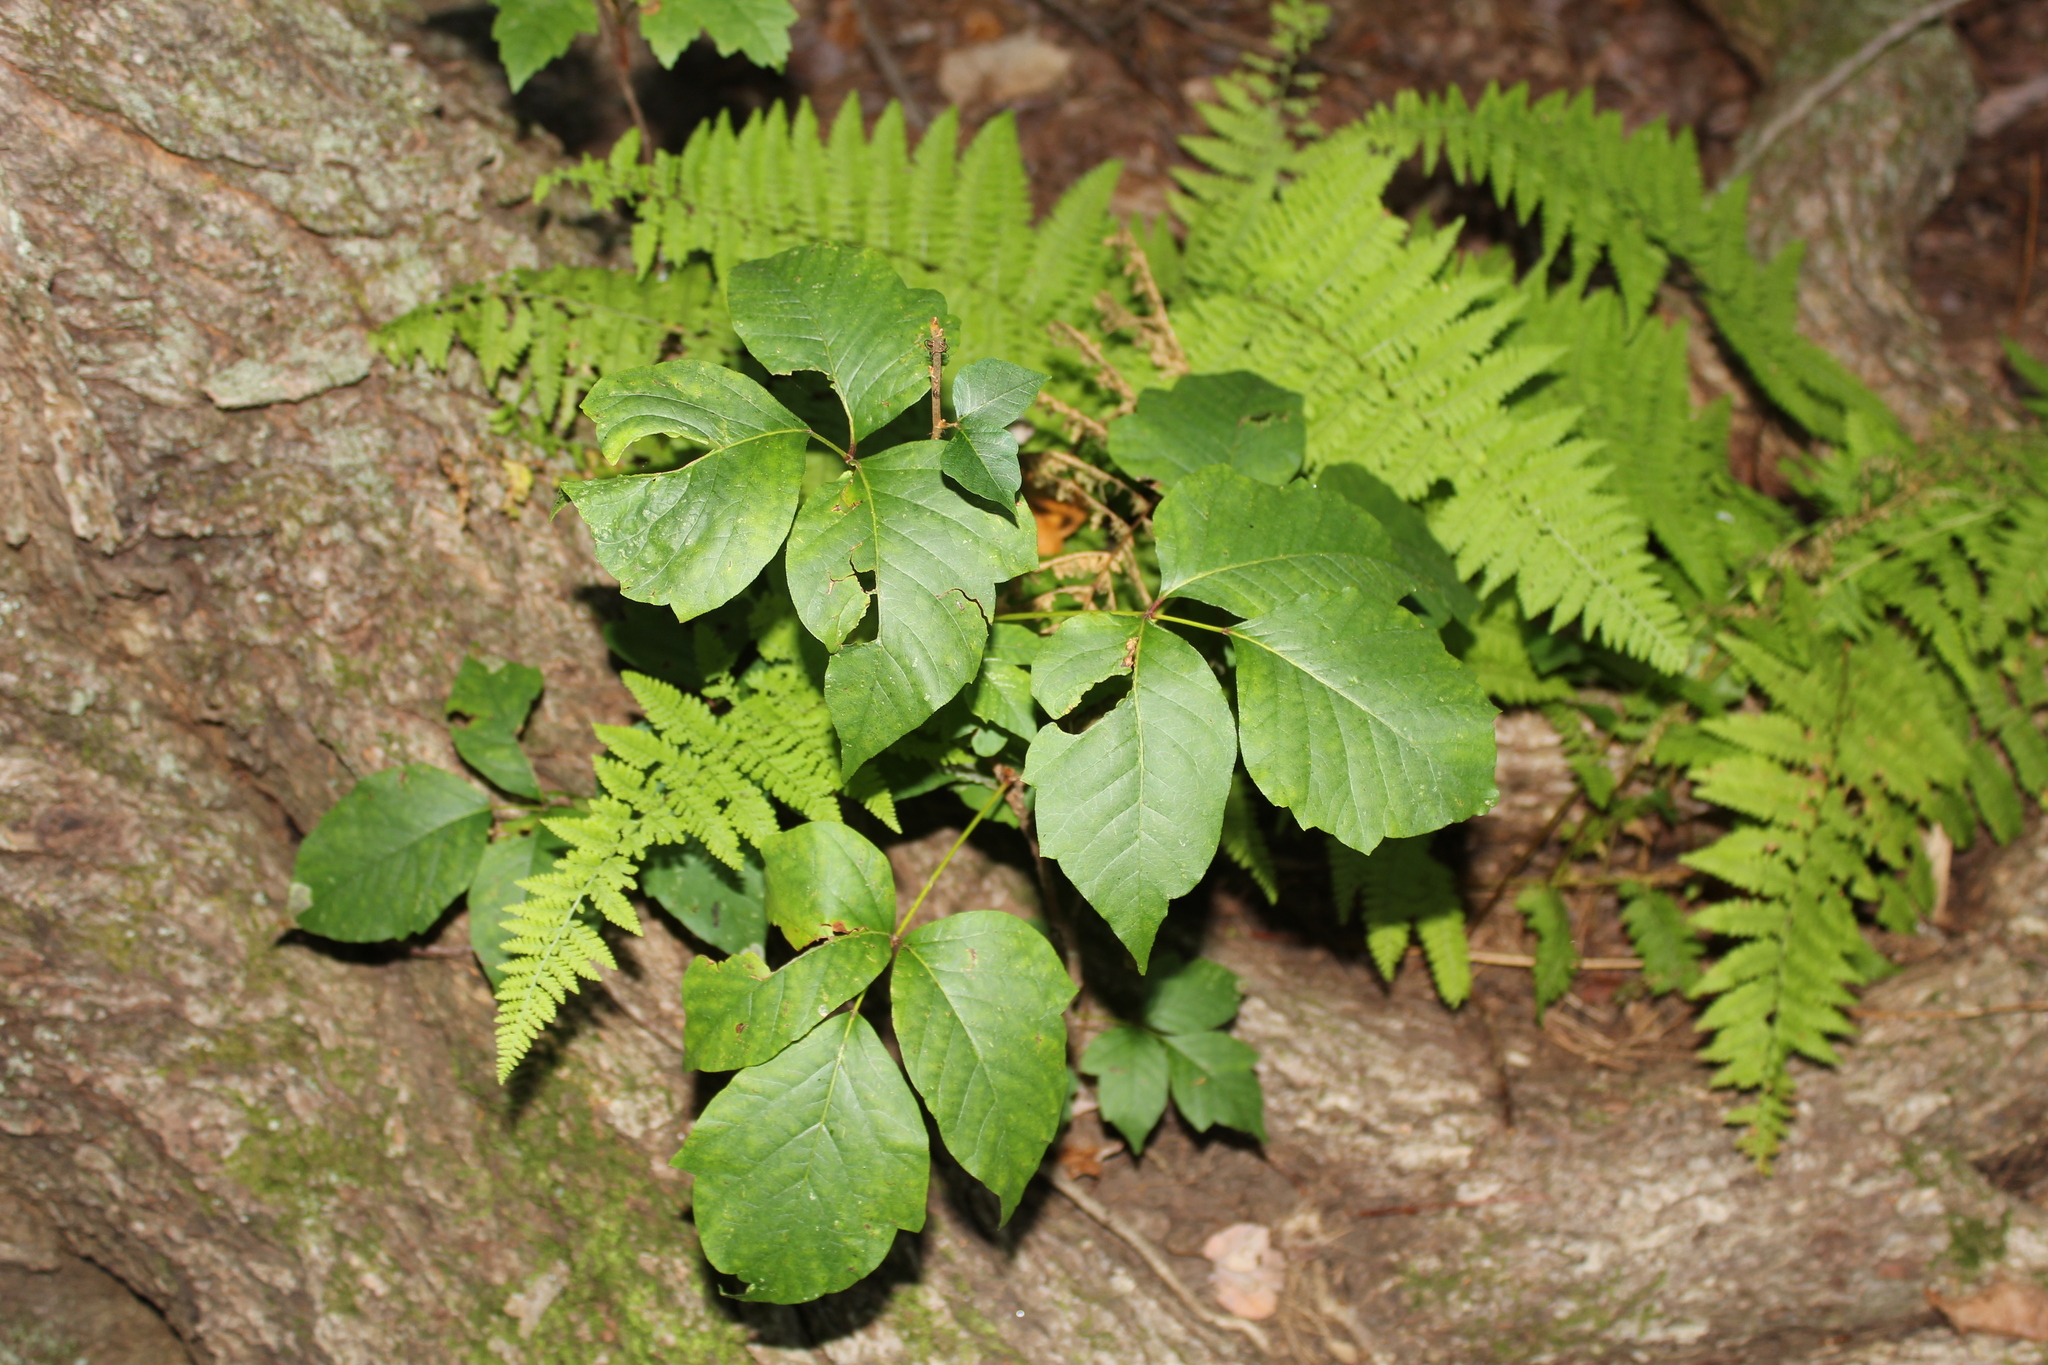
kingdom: Plantae
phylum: Tracheophyta
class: Magnoliopsida
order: Sapindales
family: Anacardiaceae
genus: Toxicodendron
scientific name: Toxicodendron radicans
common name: Poison ivy
